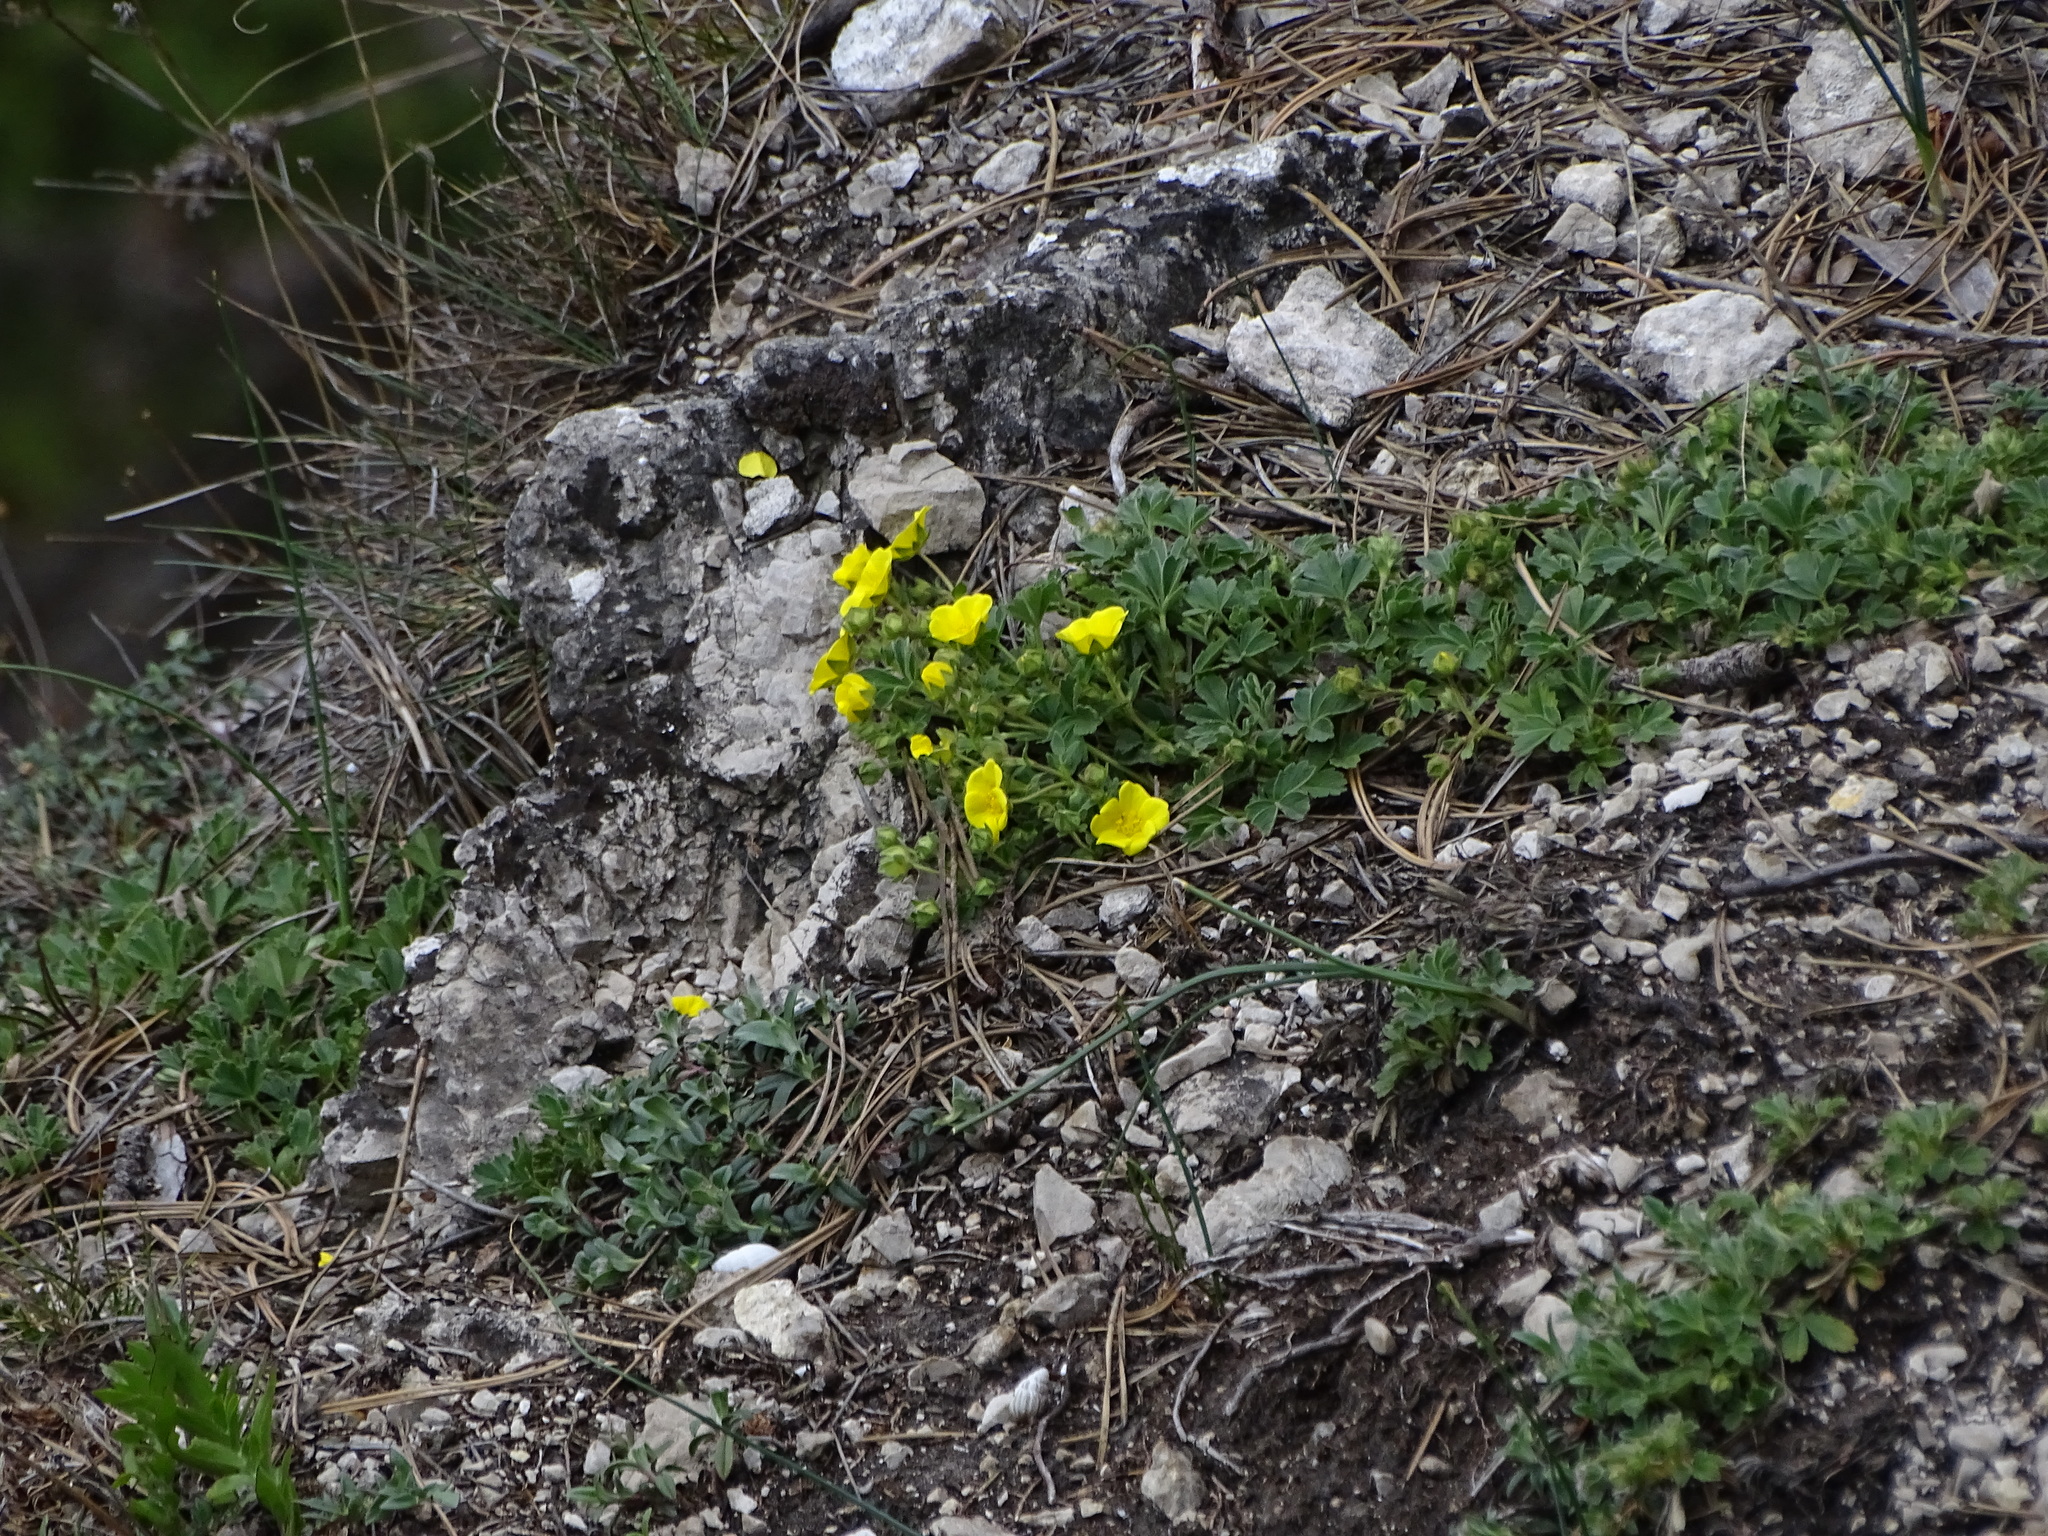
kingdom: Plantae
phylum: Tracheophyta
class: Magnoliopsida
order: Rosales
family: Rosaceae
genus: Potentilla
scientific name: Potentilla incana
